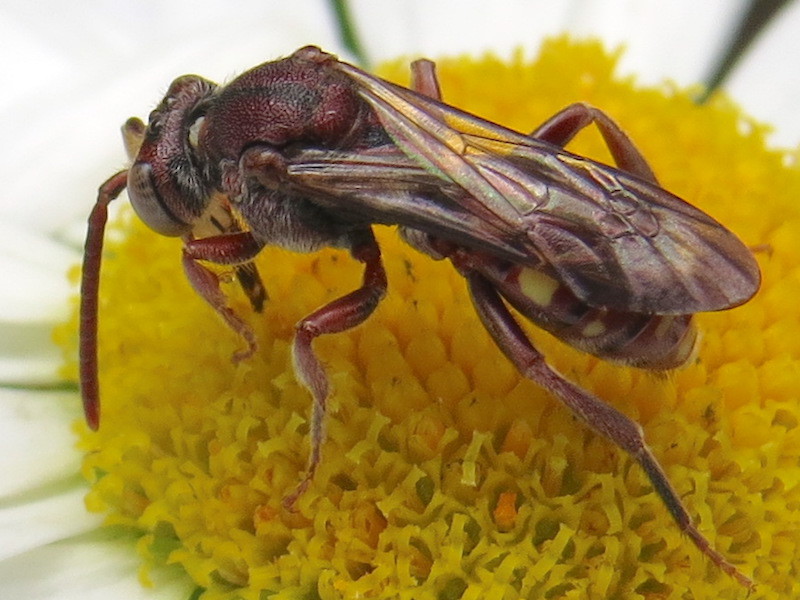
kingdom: Animalia
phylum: Arthropoda
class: Insecta
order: Hymenoptera
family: Apidae
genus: Nomada
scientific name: Nomada
